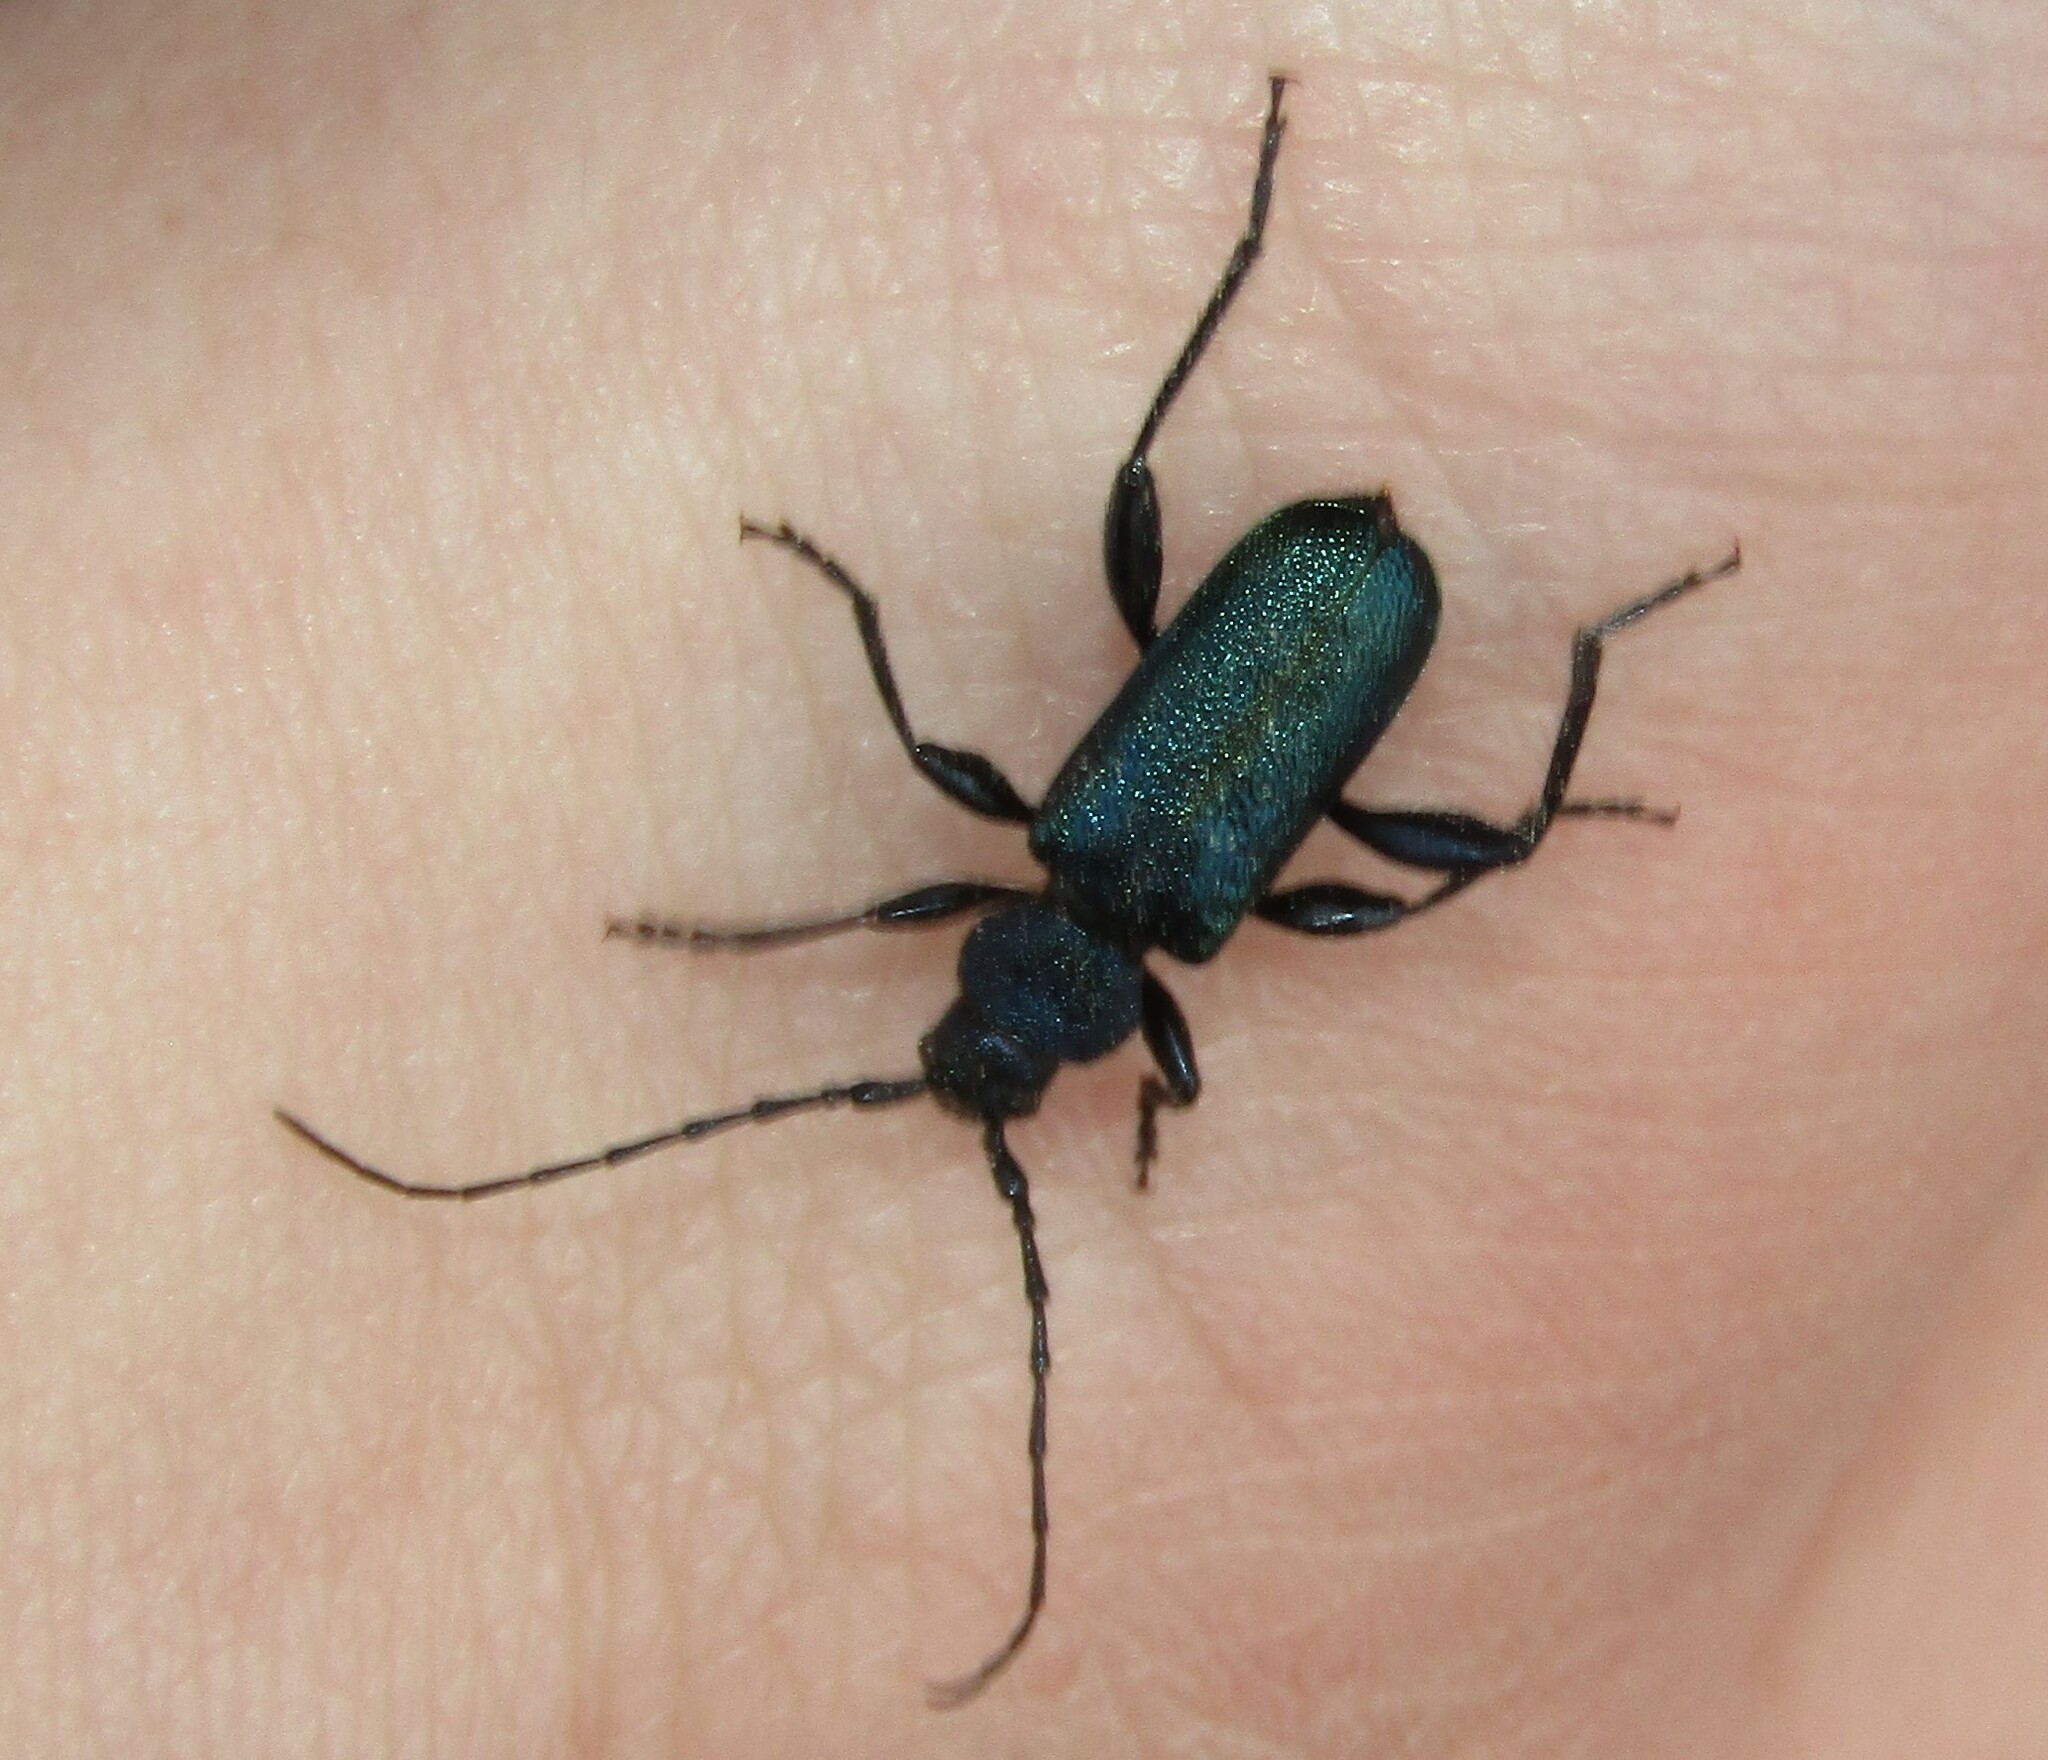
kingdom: Animalia
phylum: Arthropoda
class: Insecta
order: Coleoptera
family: Cerambycidae
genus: Callidium
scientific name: Callidium violaceum
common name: Violet tanbark beetle
